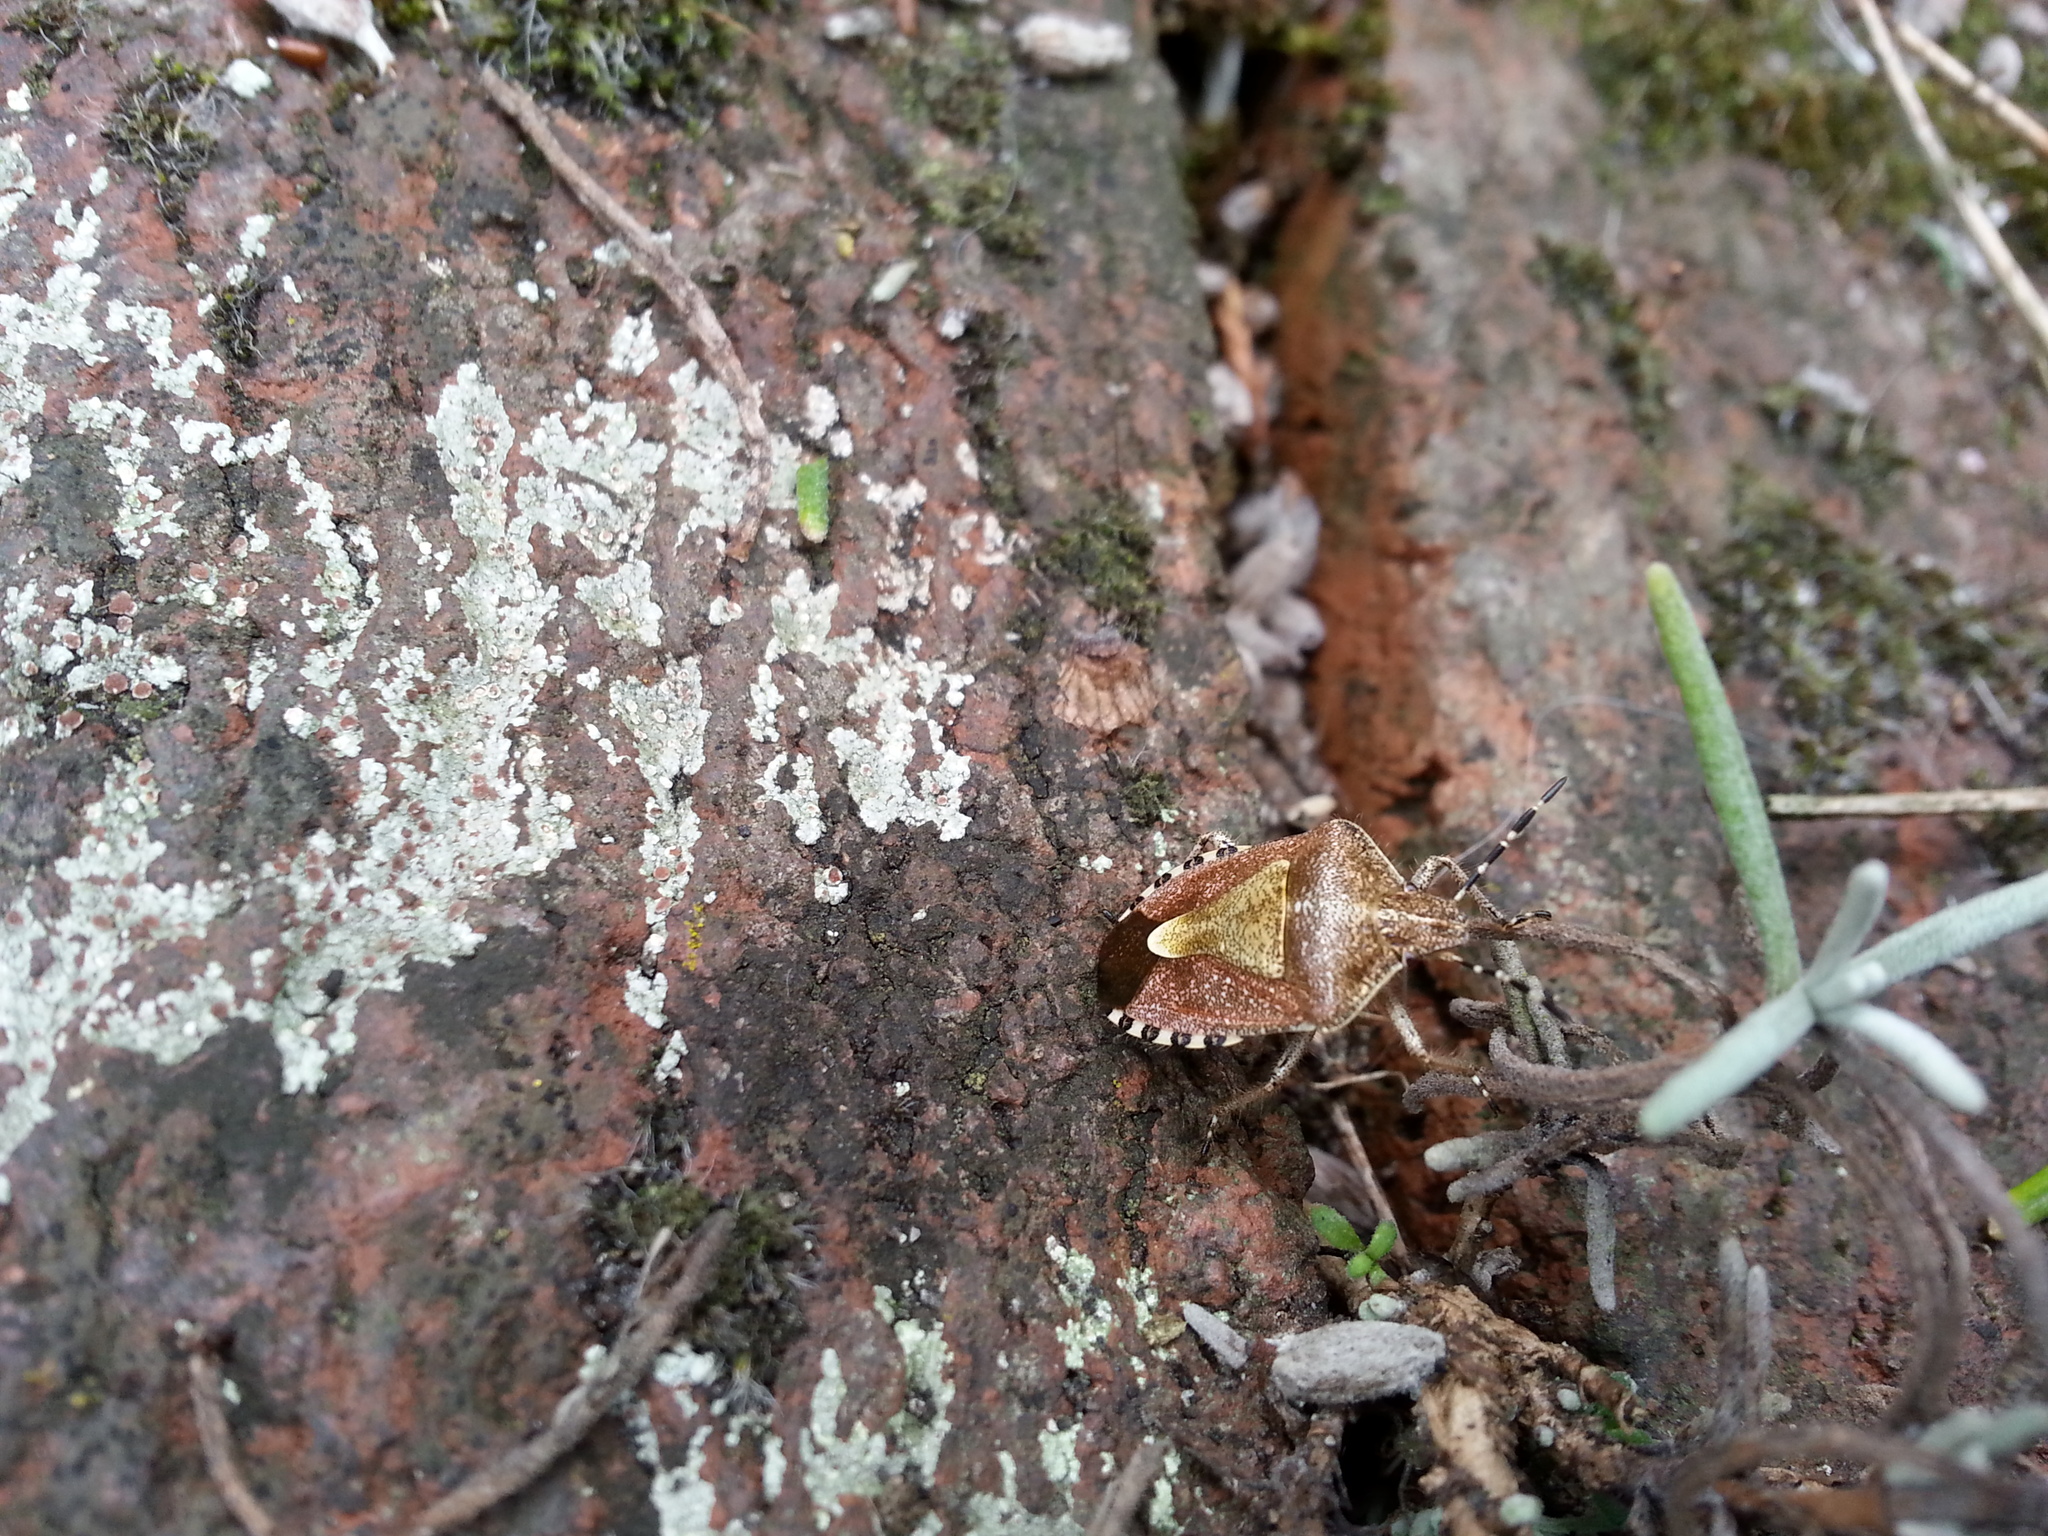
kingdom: Animalia
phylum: Arthropoda
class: Insecta
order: Hemiptera
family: Pentatomidae
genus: Dolycoris
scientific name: Dolycoris baccarum
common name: Sloe bug
